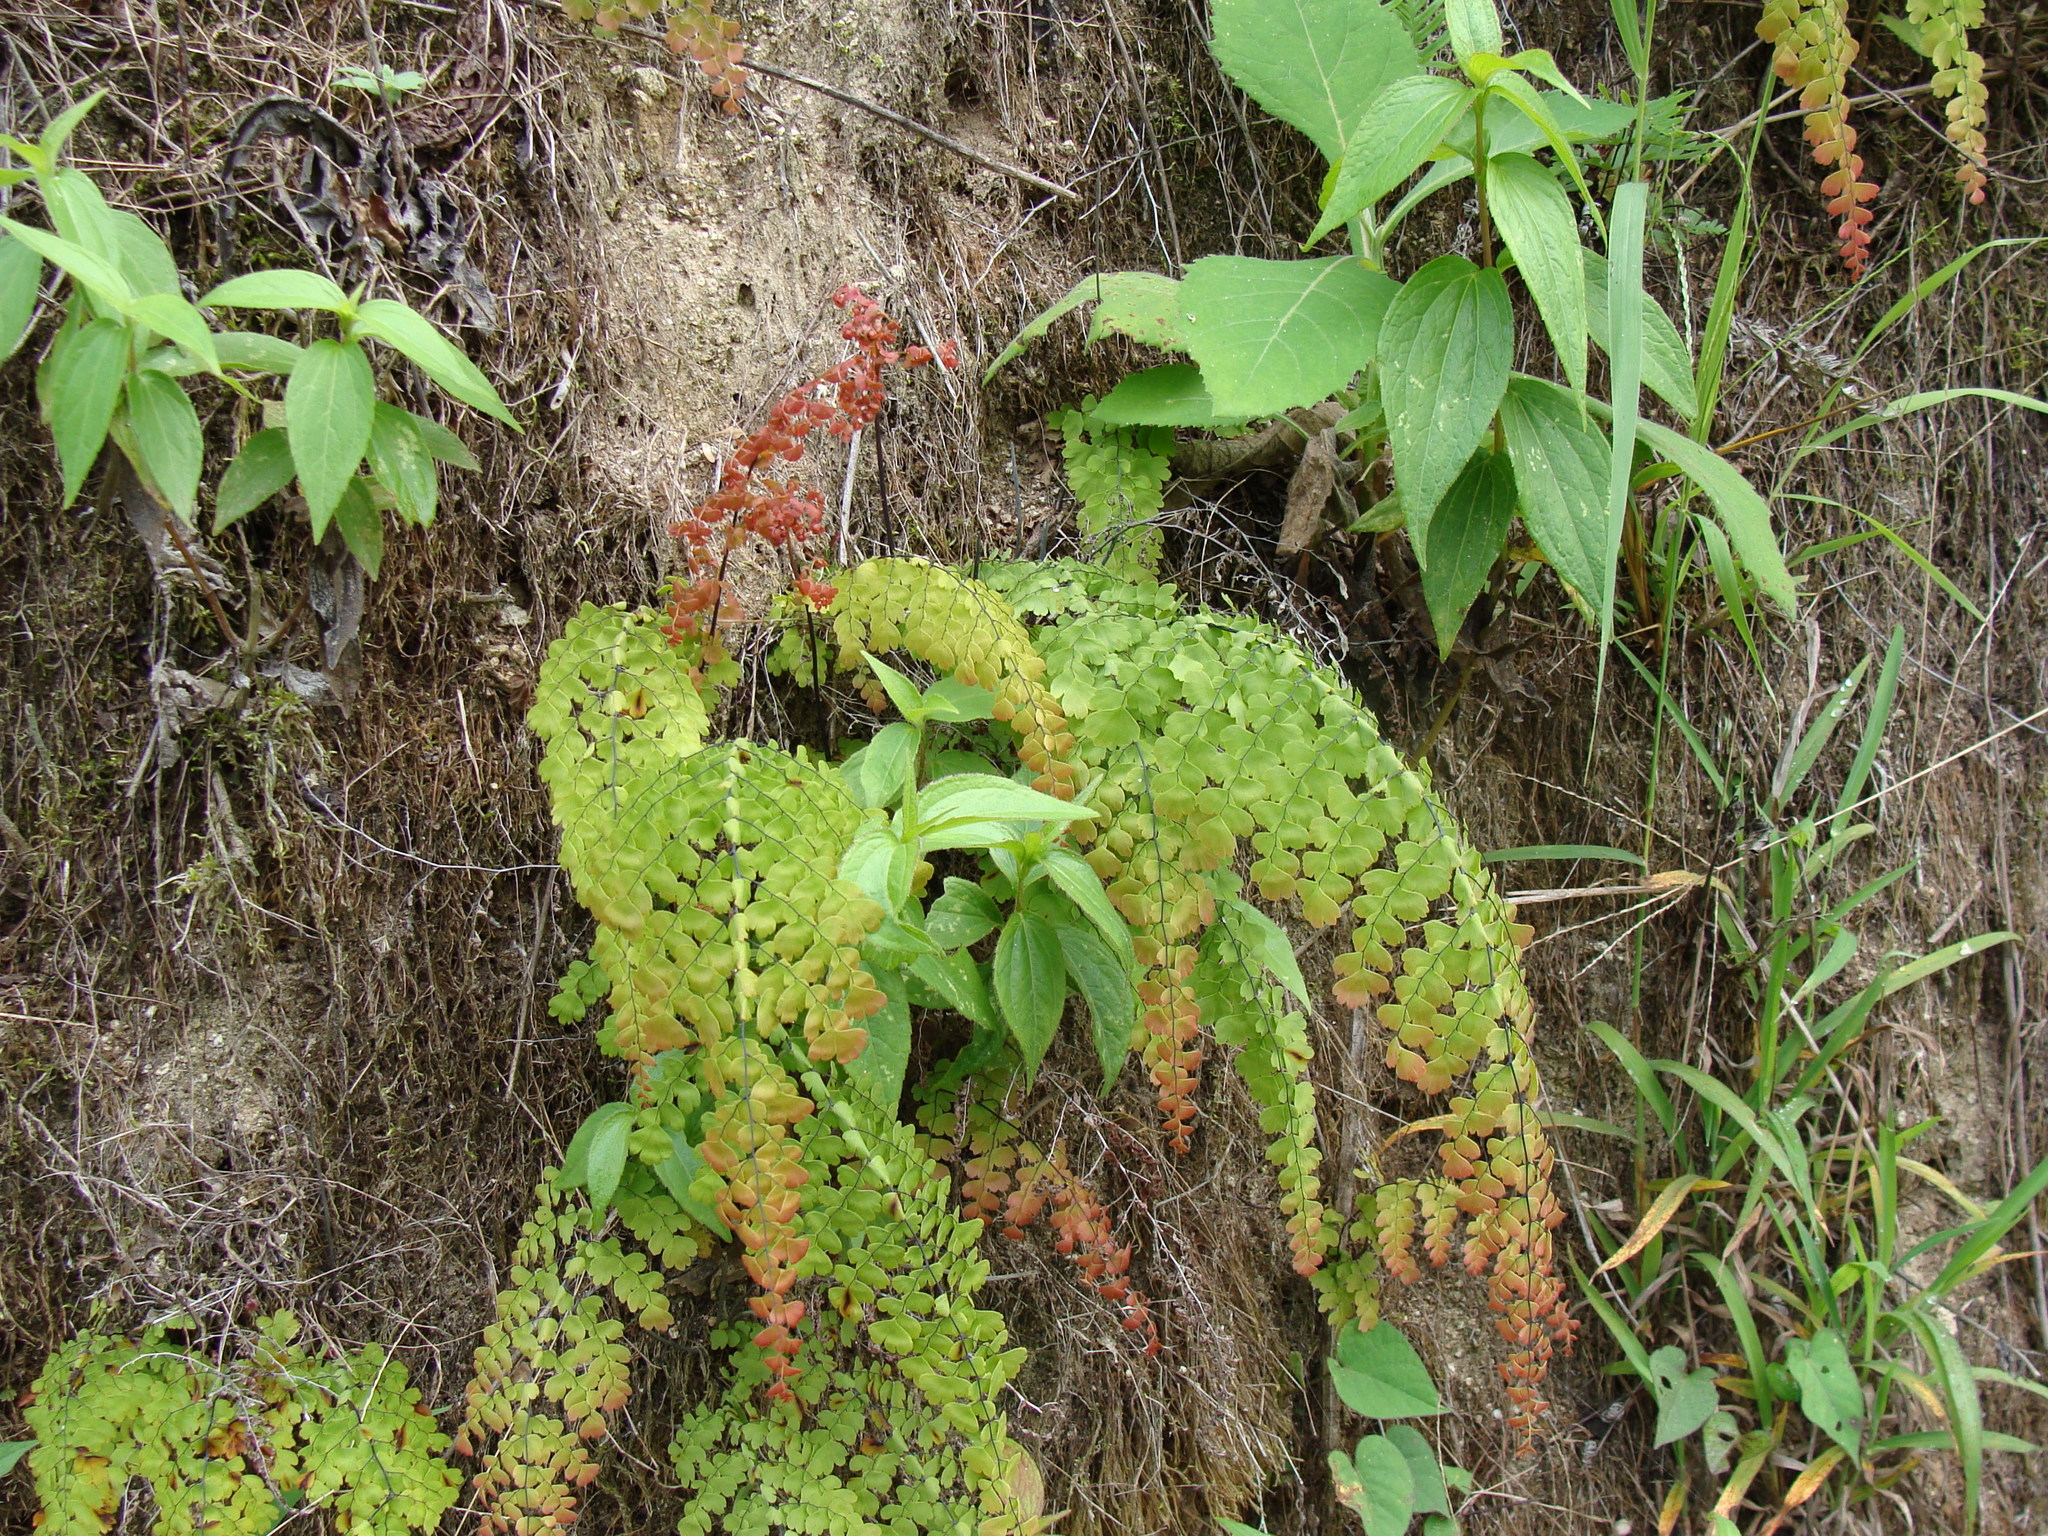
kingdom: Plantae
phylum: Tracheophyta
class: Polypodiopsida
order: Polypodiales
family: Pteridaceae
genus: Adiantum
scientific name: Adiantum concinnum
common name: Brittle maidenhair fern
